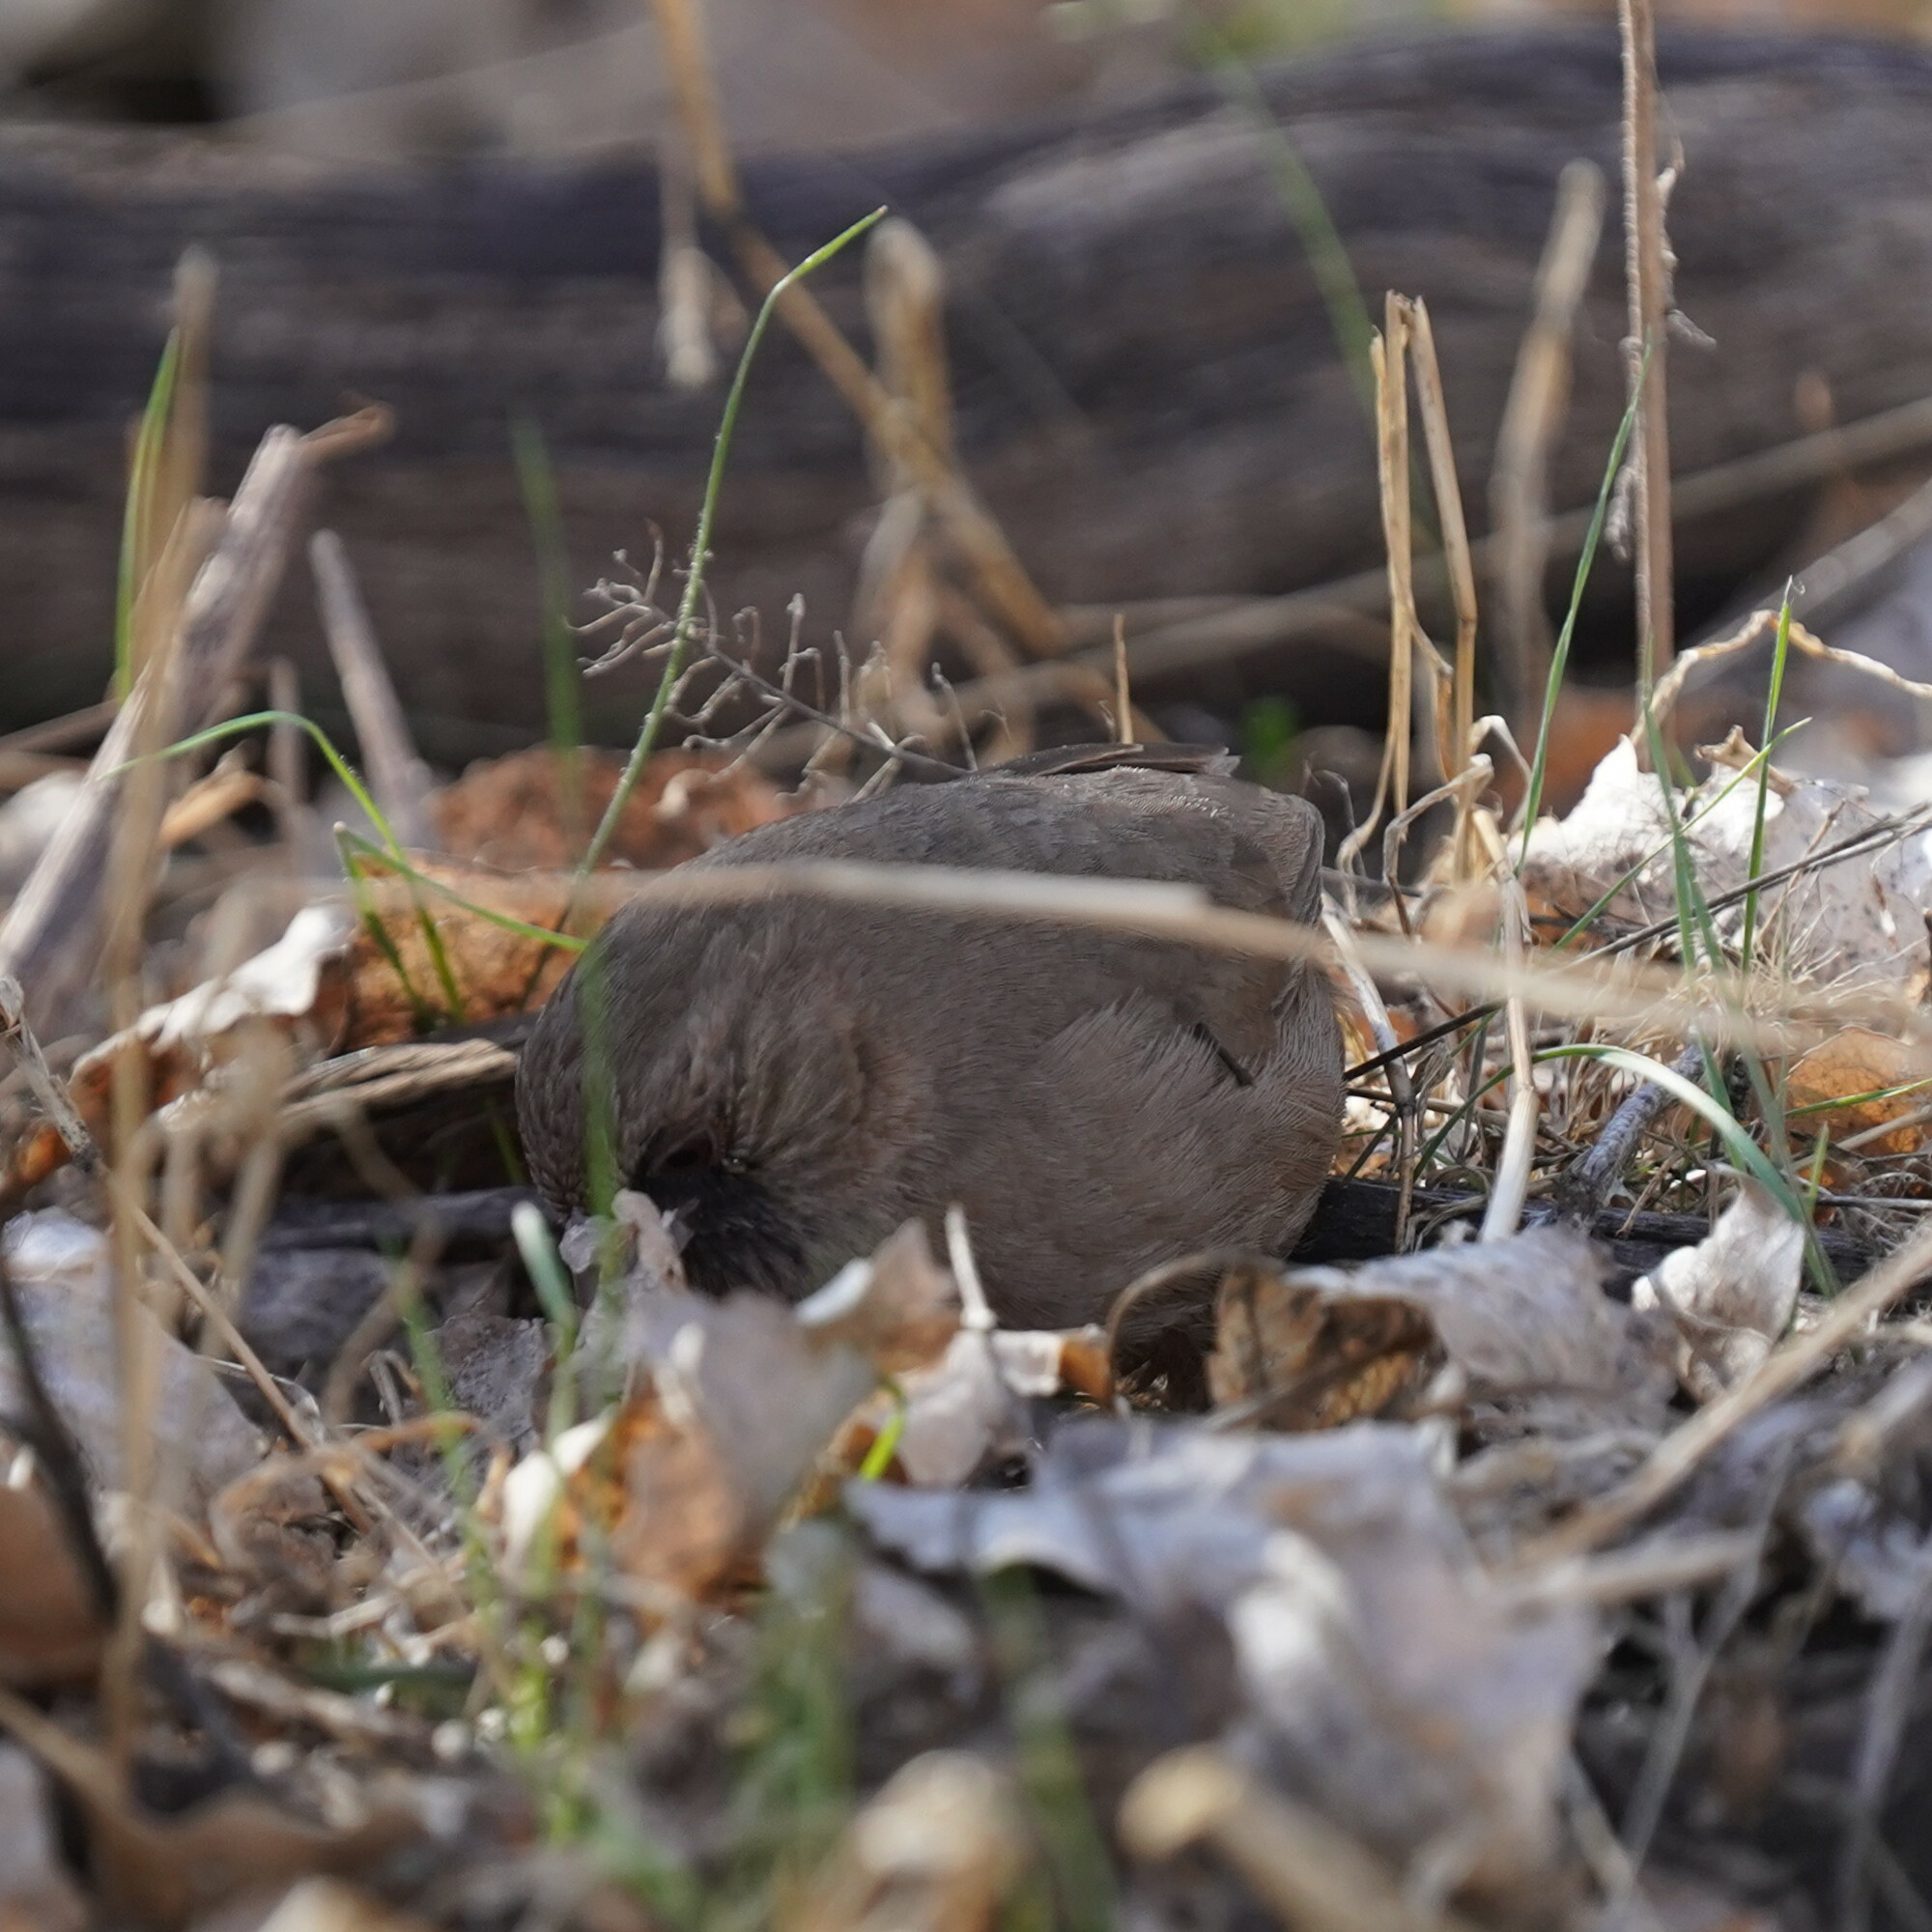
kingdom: Animalia
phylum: Chordata
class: Aves
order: Passeriformes
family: Passerellidae
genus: Melozone
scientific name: Melozone aberti
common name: Abert's towhee
